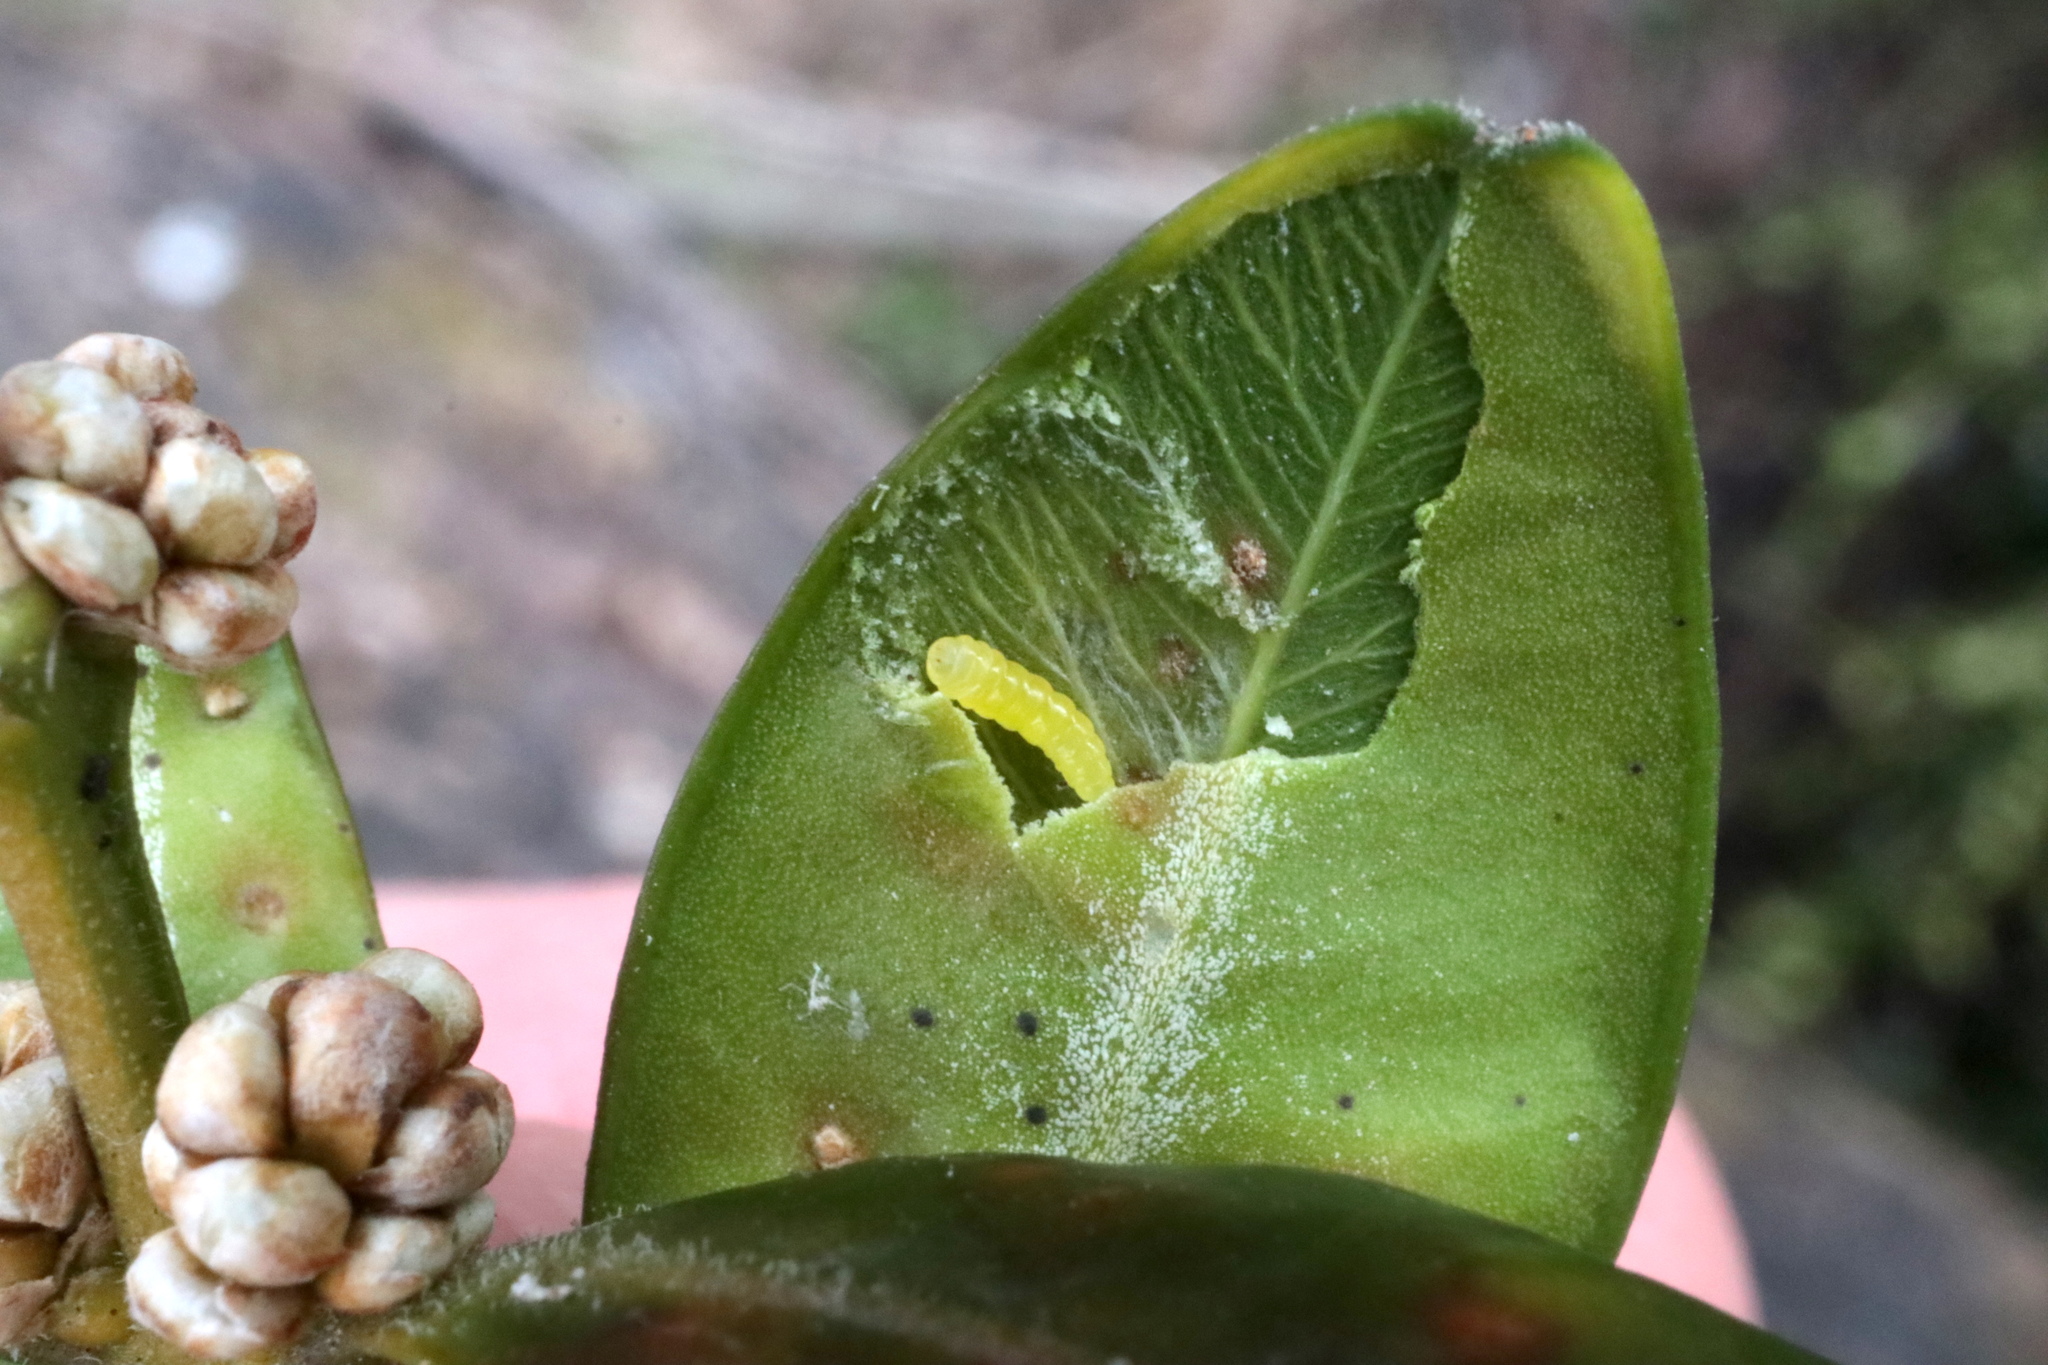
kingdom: Animalia
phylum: Arthropoda
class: Insecta
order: Diptera
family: Cecidomyiidae
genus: Monarthropalpus
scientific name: Monarthropalpus flavus
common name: Boxwood leafminer
